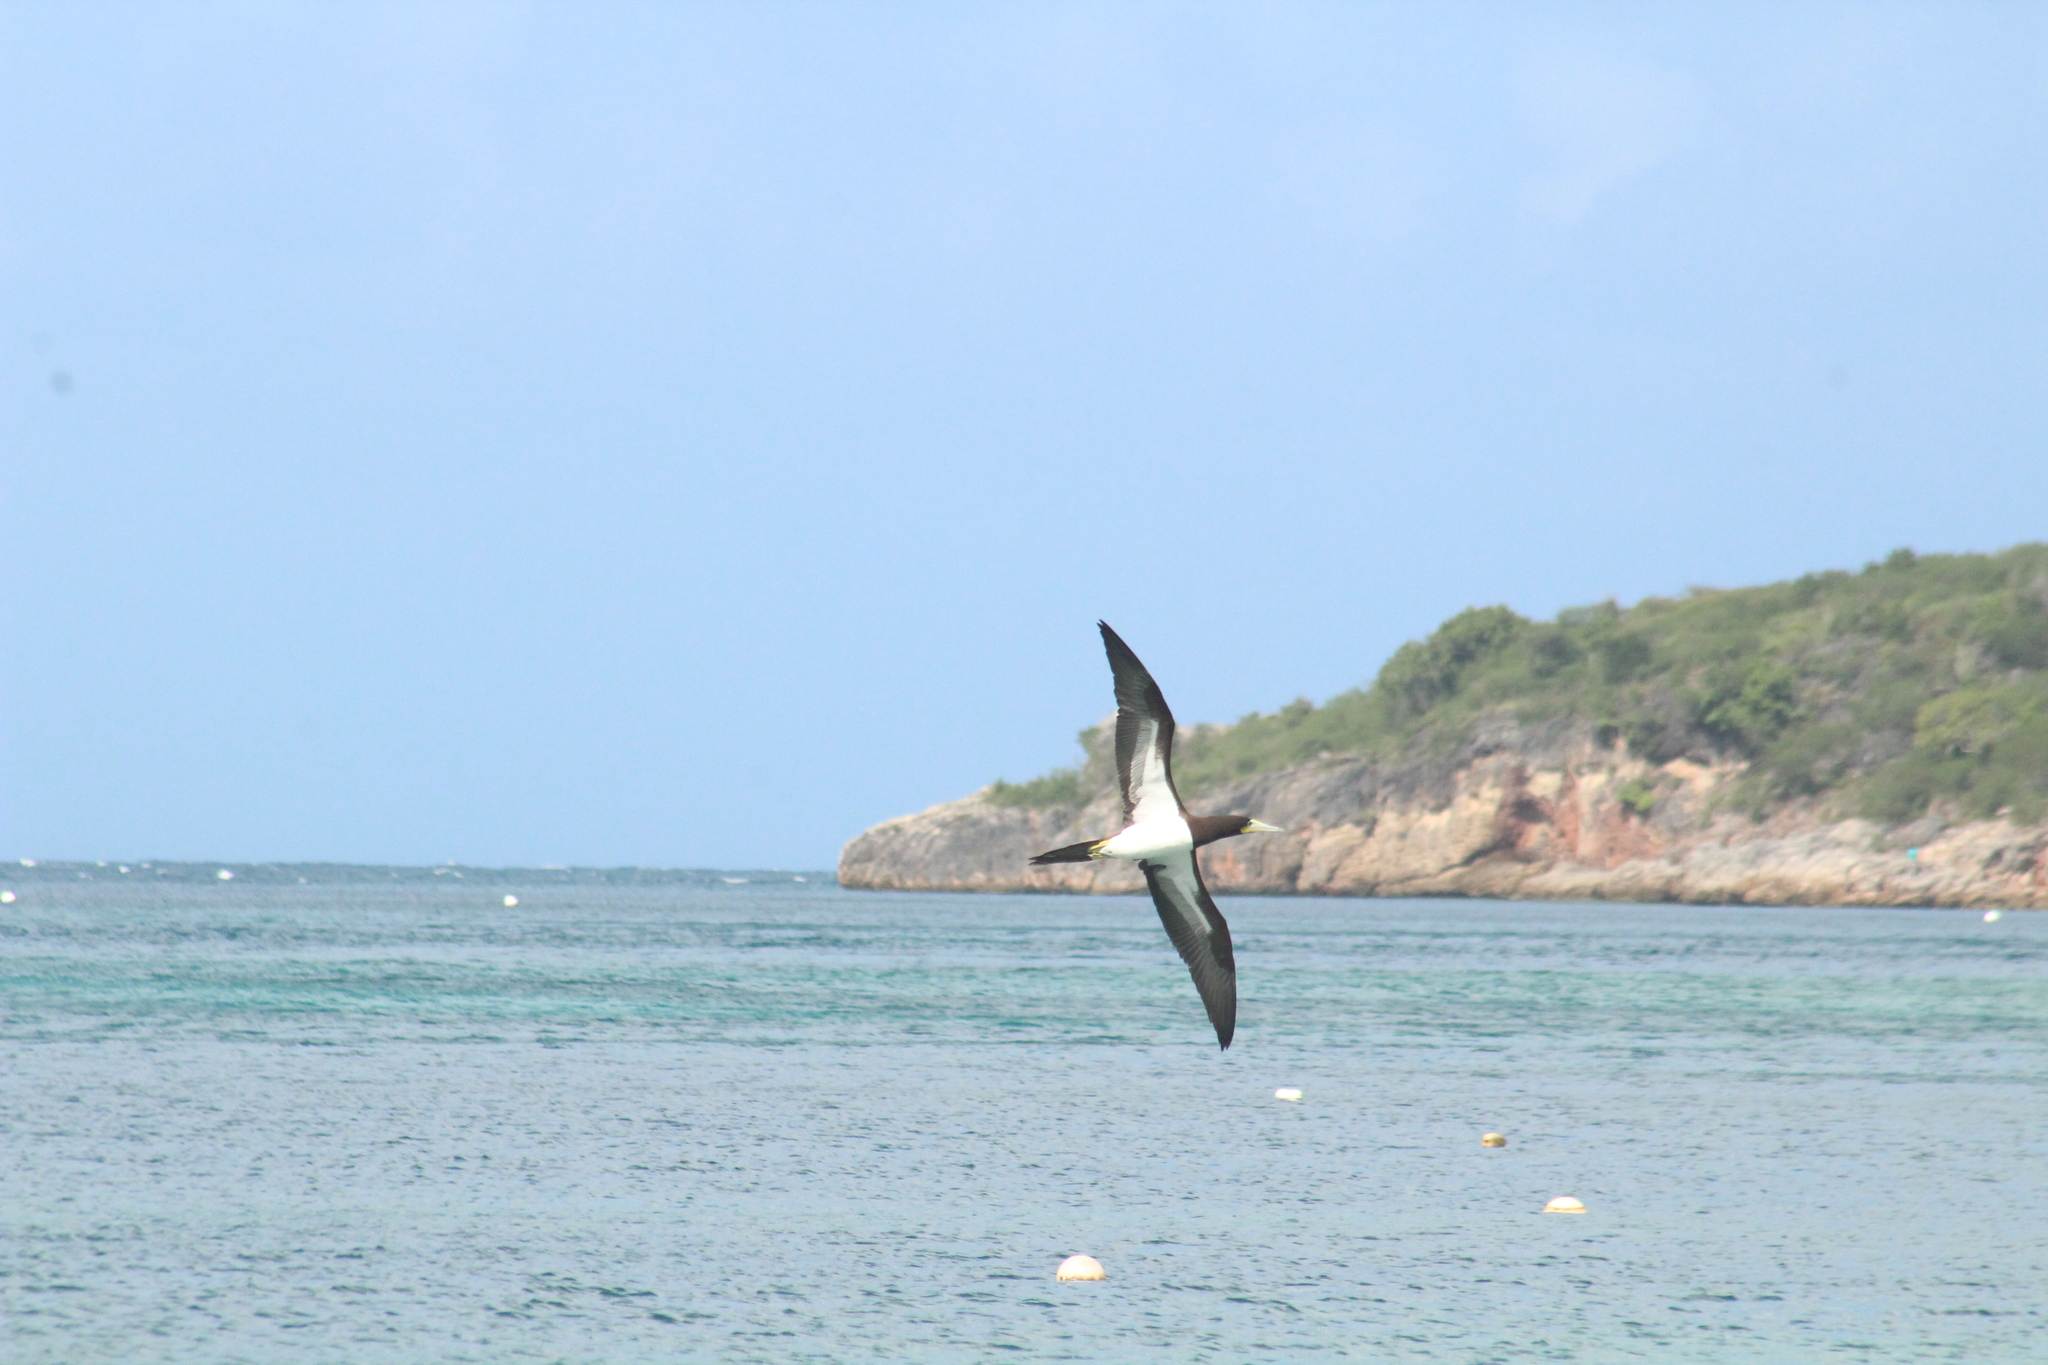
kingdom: Animalia
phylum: Chordata
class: Aves
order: Suliformes
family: Sulidae
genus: Sula
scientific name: Sula leucogaster
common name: Brown booby
